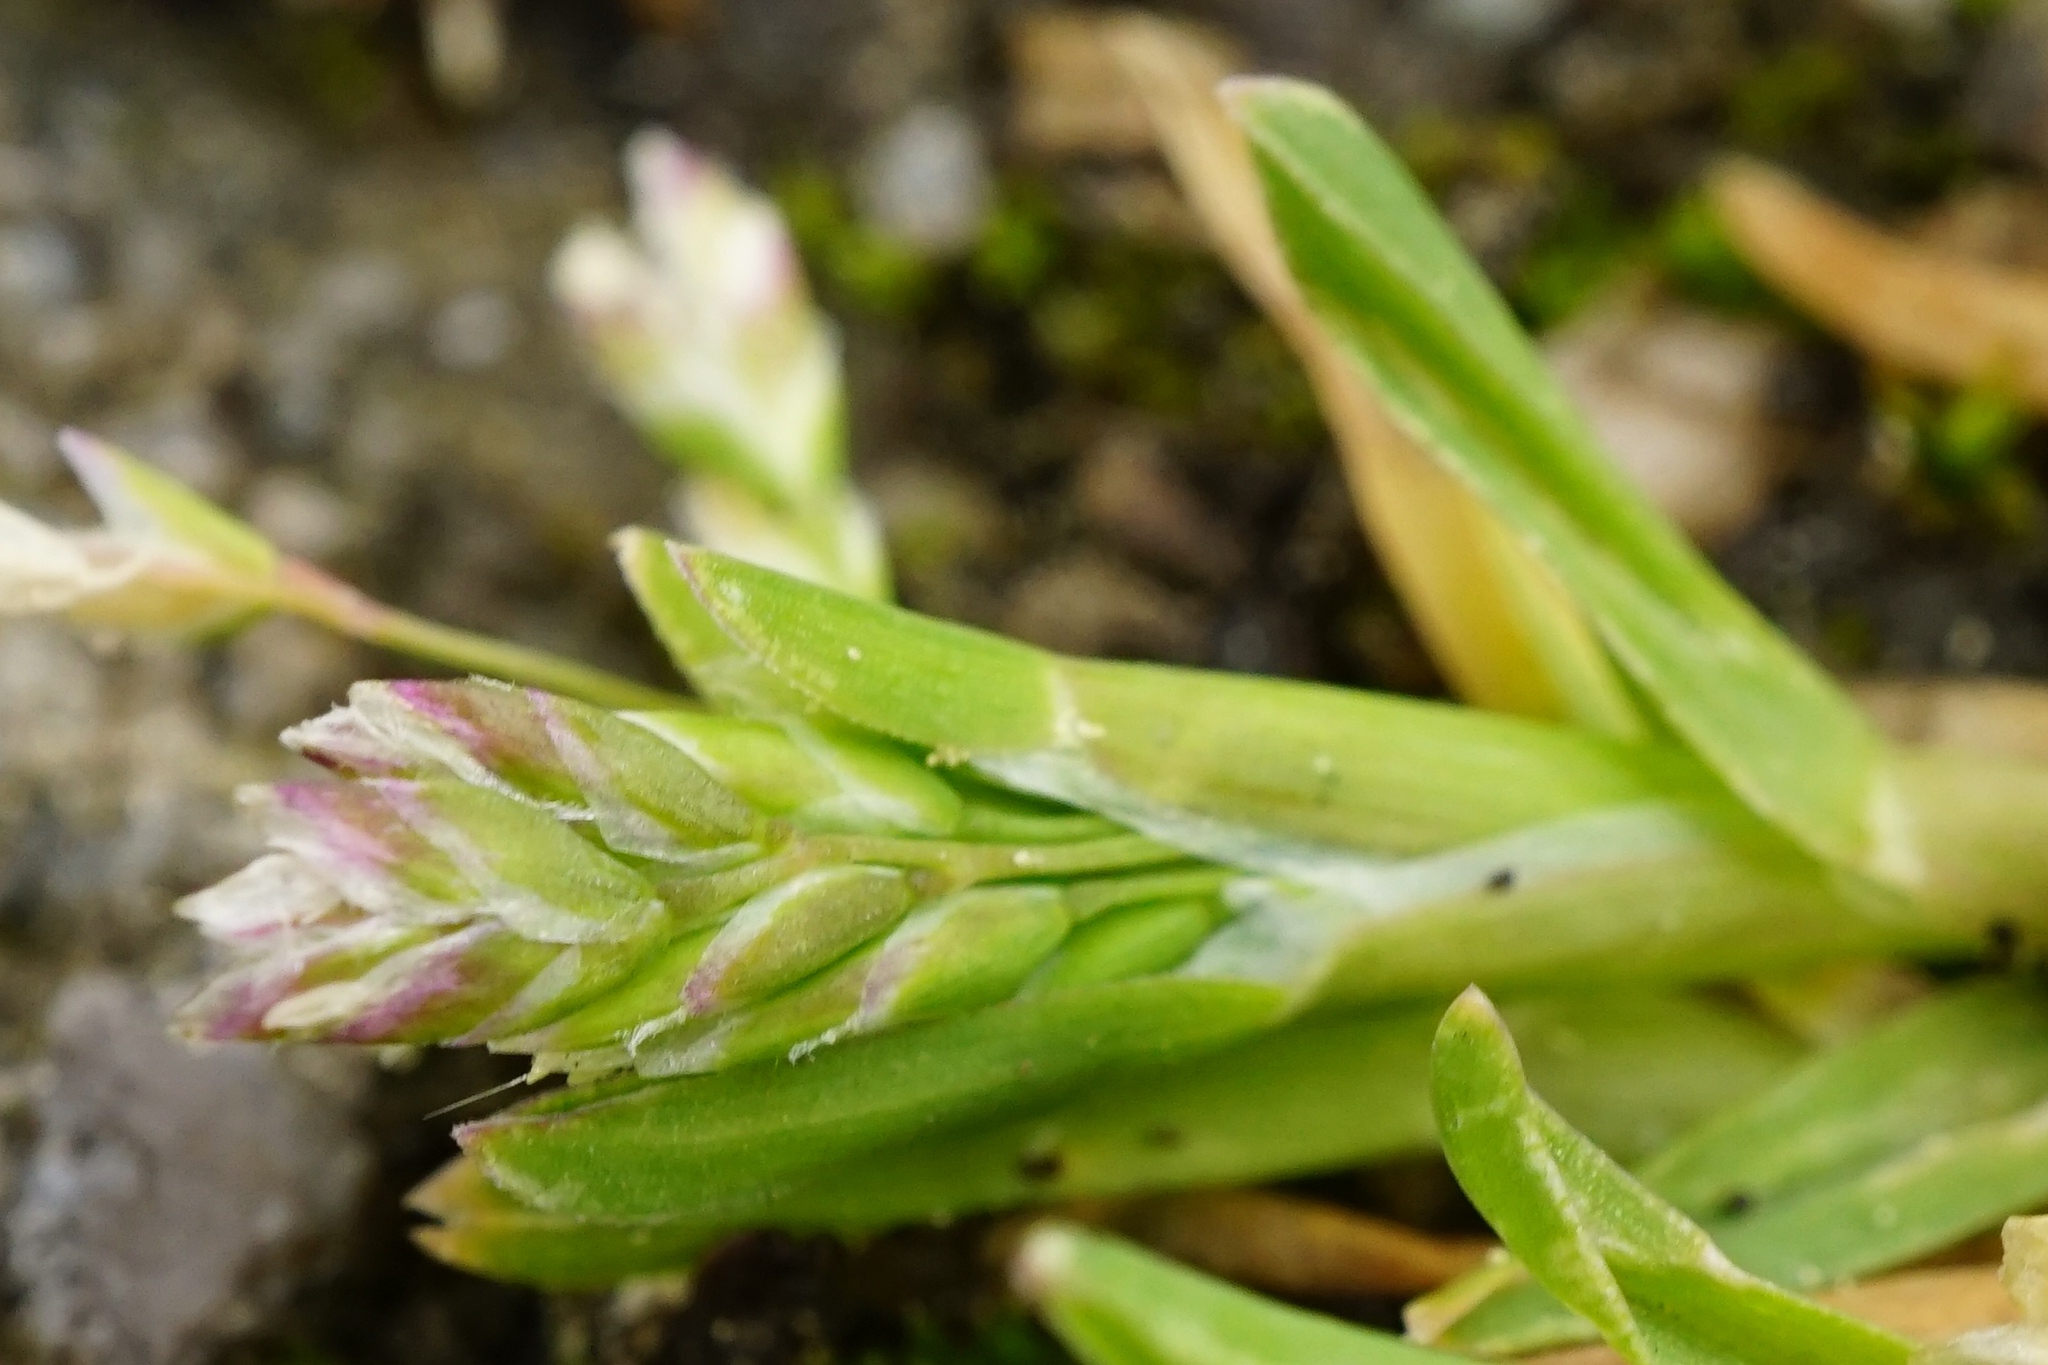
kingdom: Plantae
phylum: Tracheophyta
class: Liliopsida
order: Poales
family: Poaceae
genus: Poa
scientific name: Poa annua
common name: Annual bluegrass
